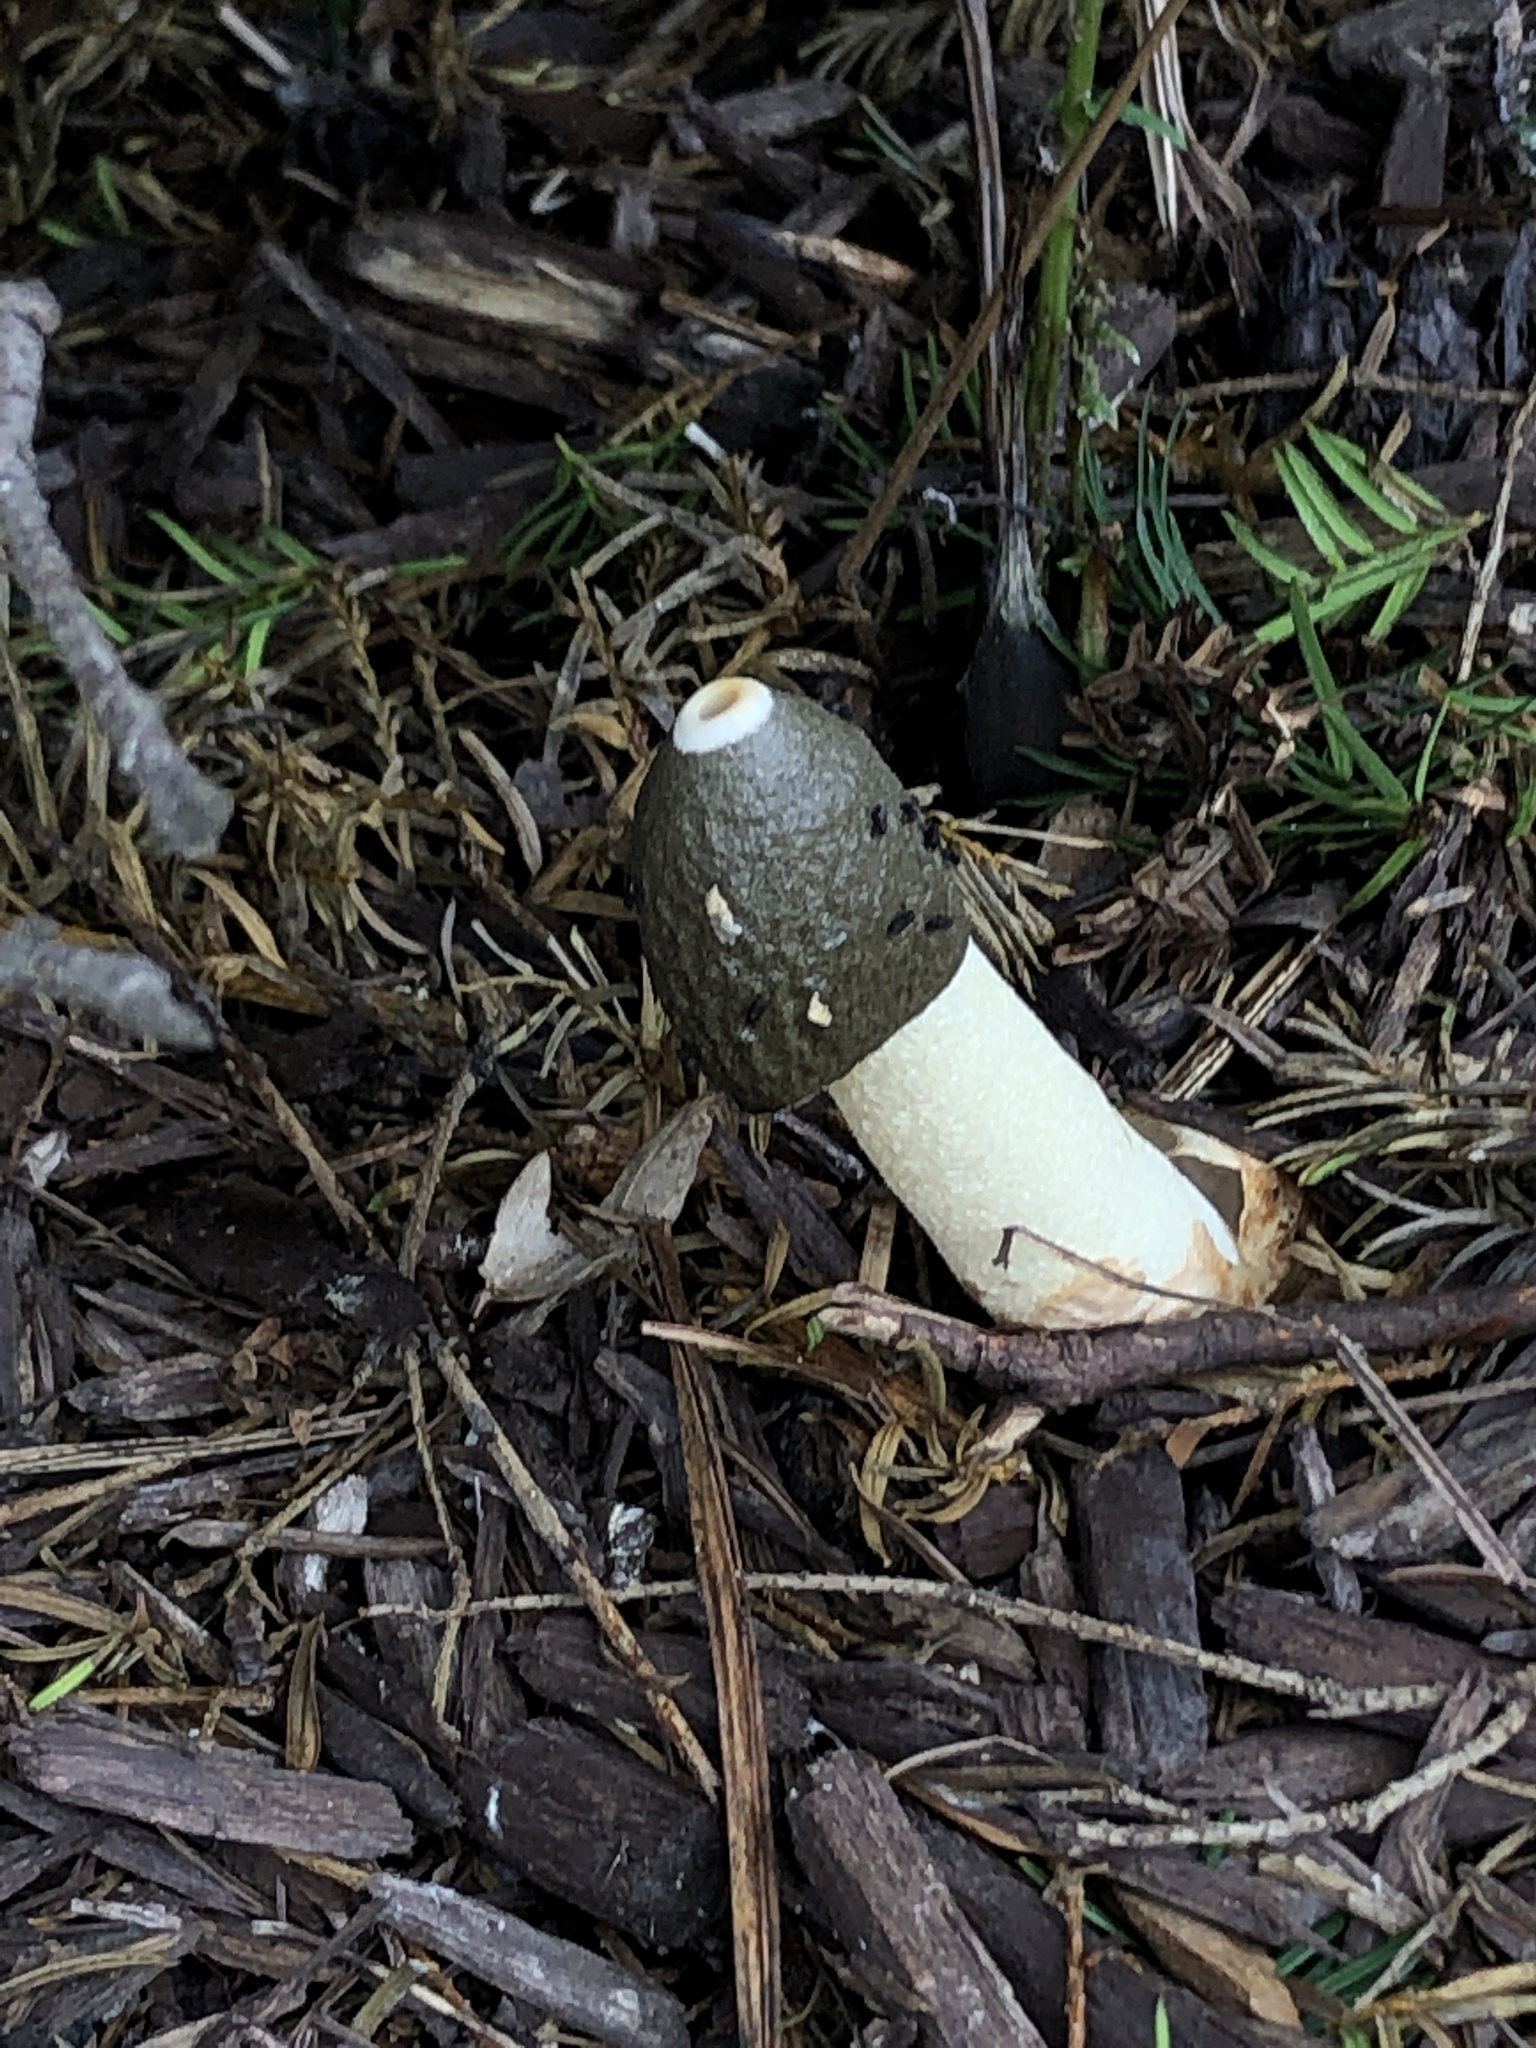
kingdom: Fungi
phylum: Basidiomycota
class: Agaricomycetes
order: Phallales
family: Phallaceae
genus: Phallus
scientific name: Phallus ravenelii
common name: Ravenel's stinkhorn
